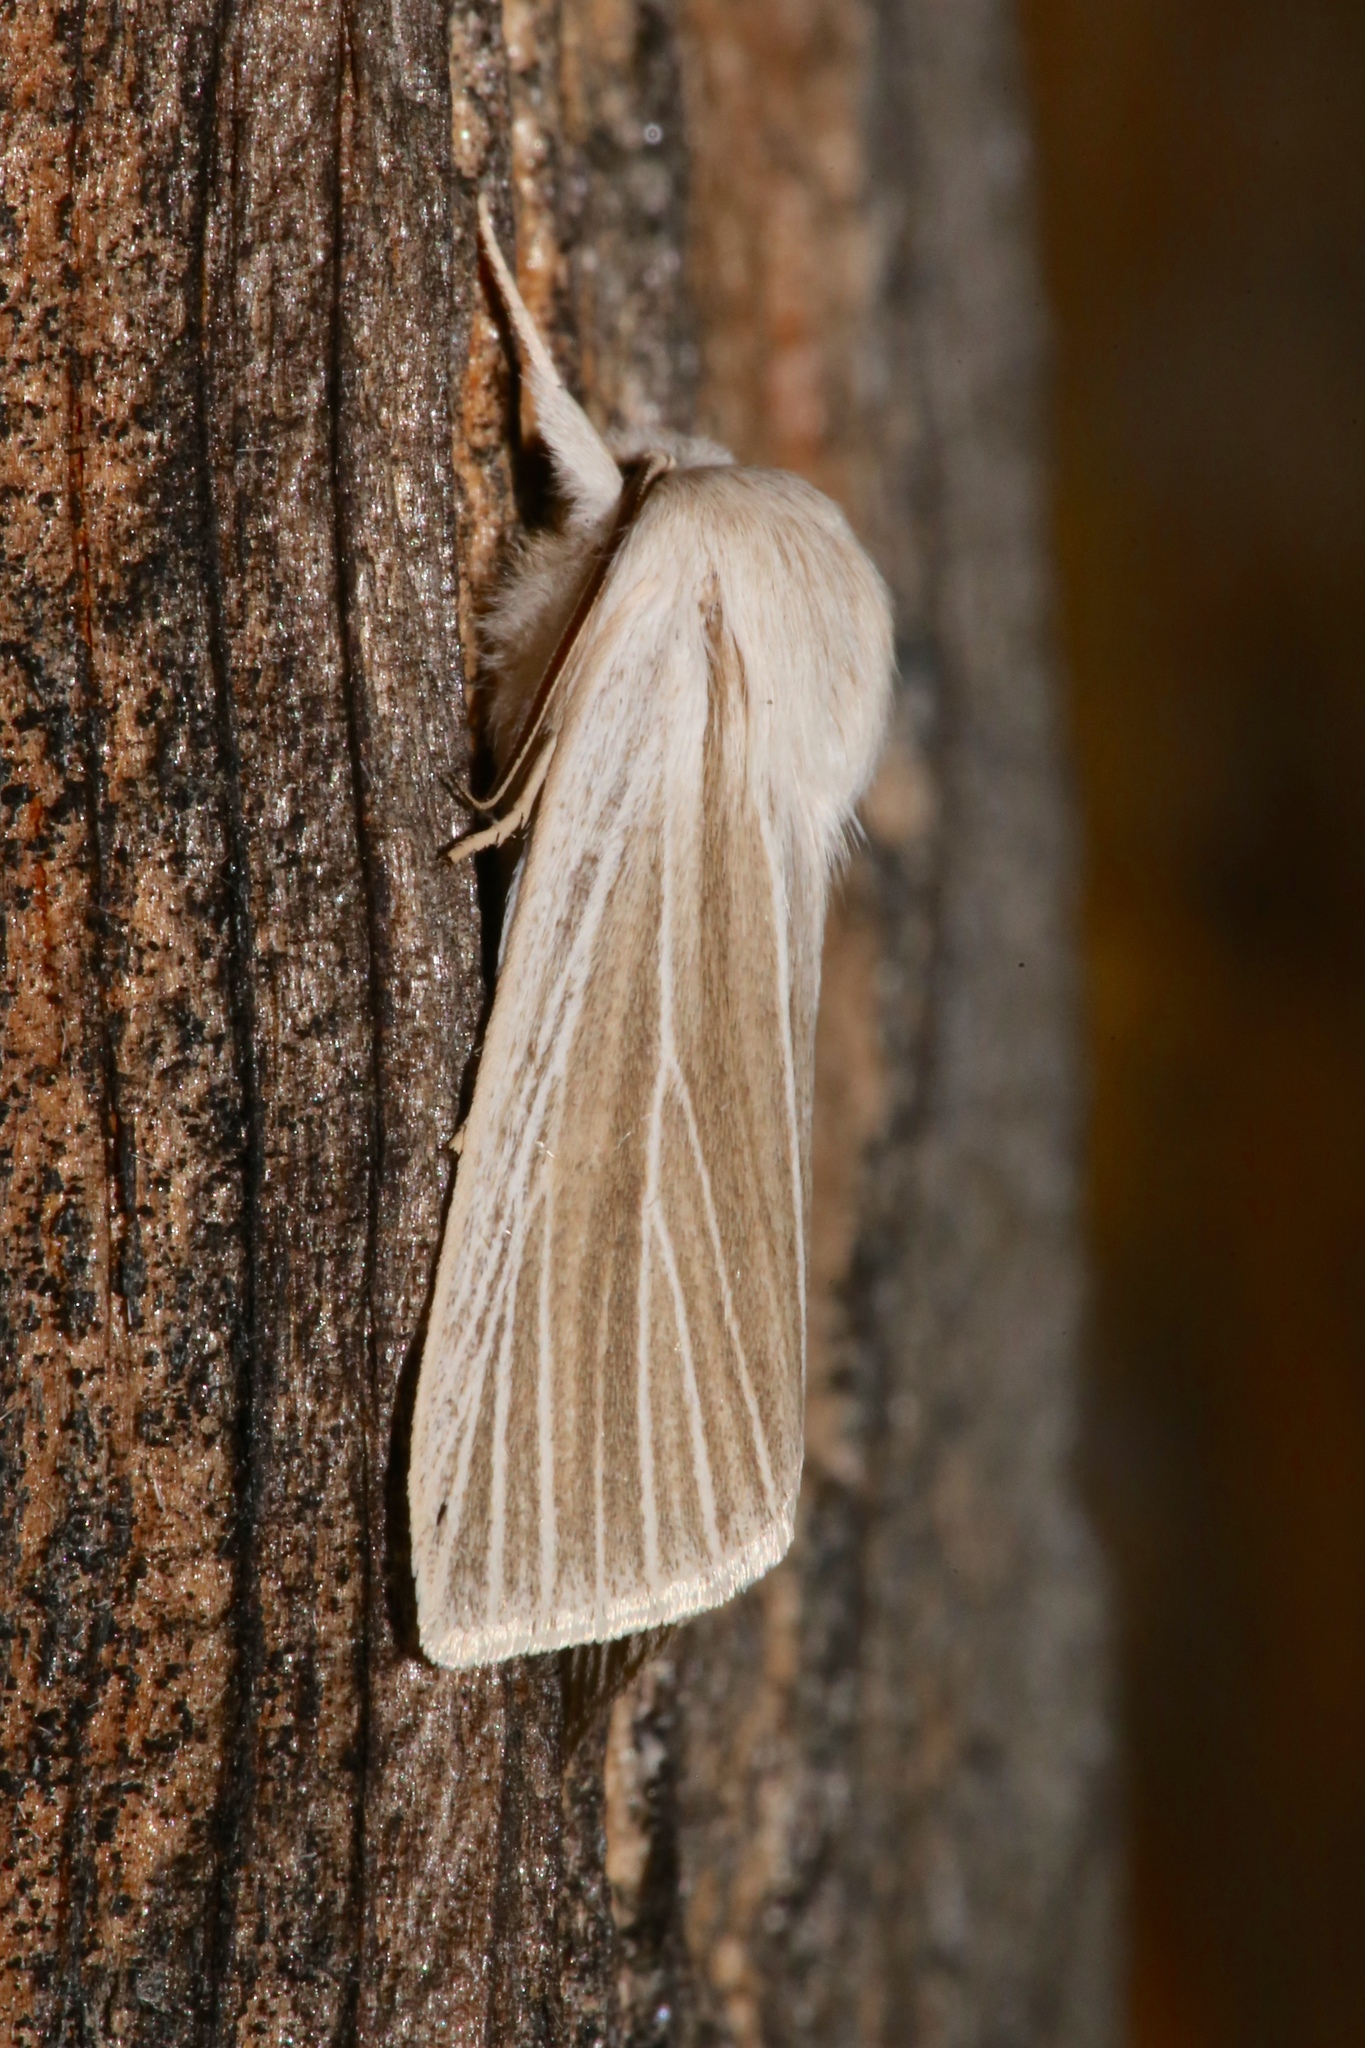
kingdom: Animalia
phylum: Arthropoda
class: Insecta
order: Lepidoptera
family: Noctuidae
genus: Acronicta
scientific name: Acronicta insularis
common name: Henry's marsh moth
